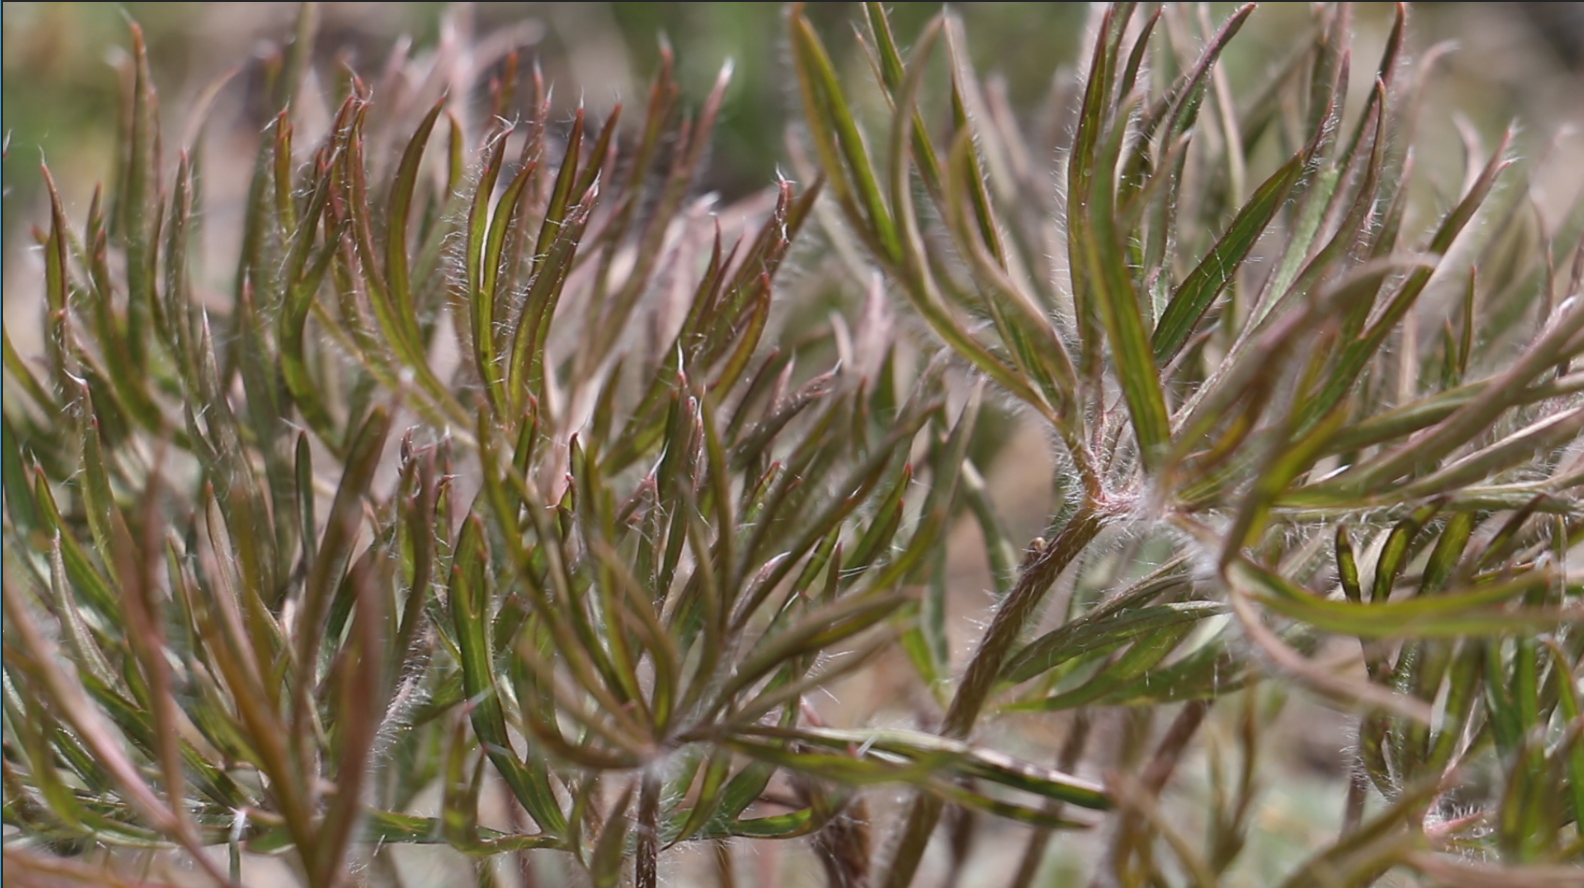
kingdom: Plantae
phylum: Tracheophyta
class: Magnoliopsida
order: Ranunculales
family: Ranunculaceae
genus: Pulsatilla
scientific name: Pulsatilla nuttalliana
